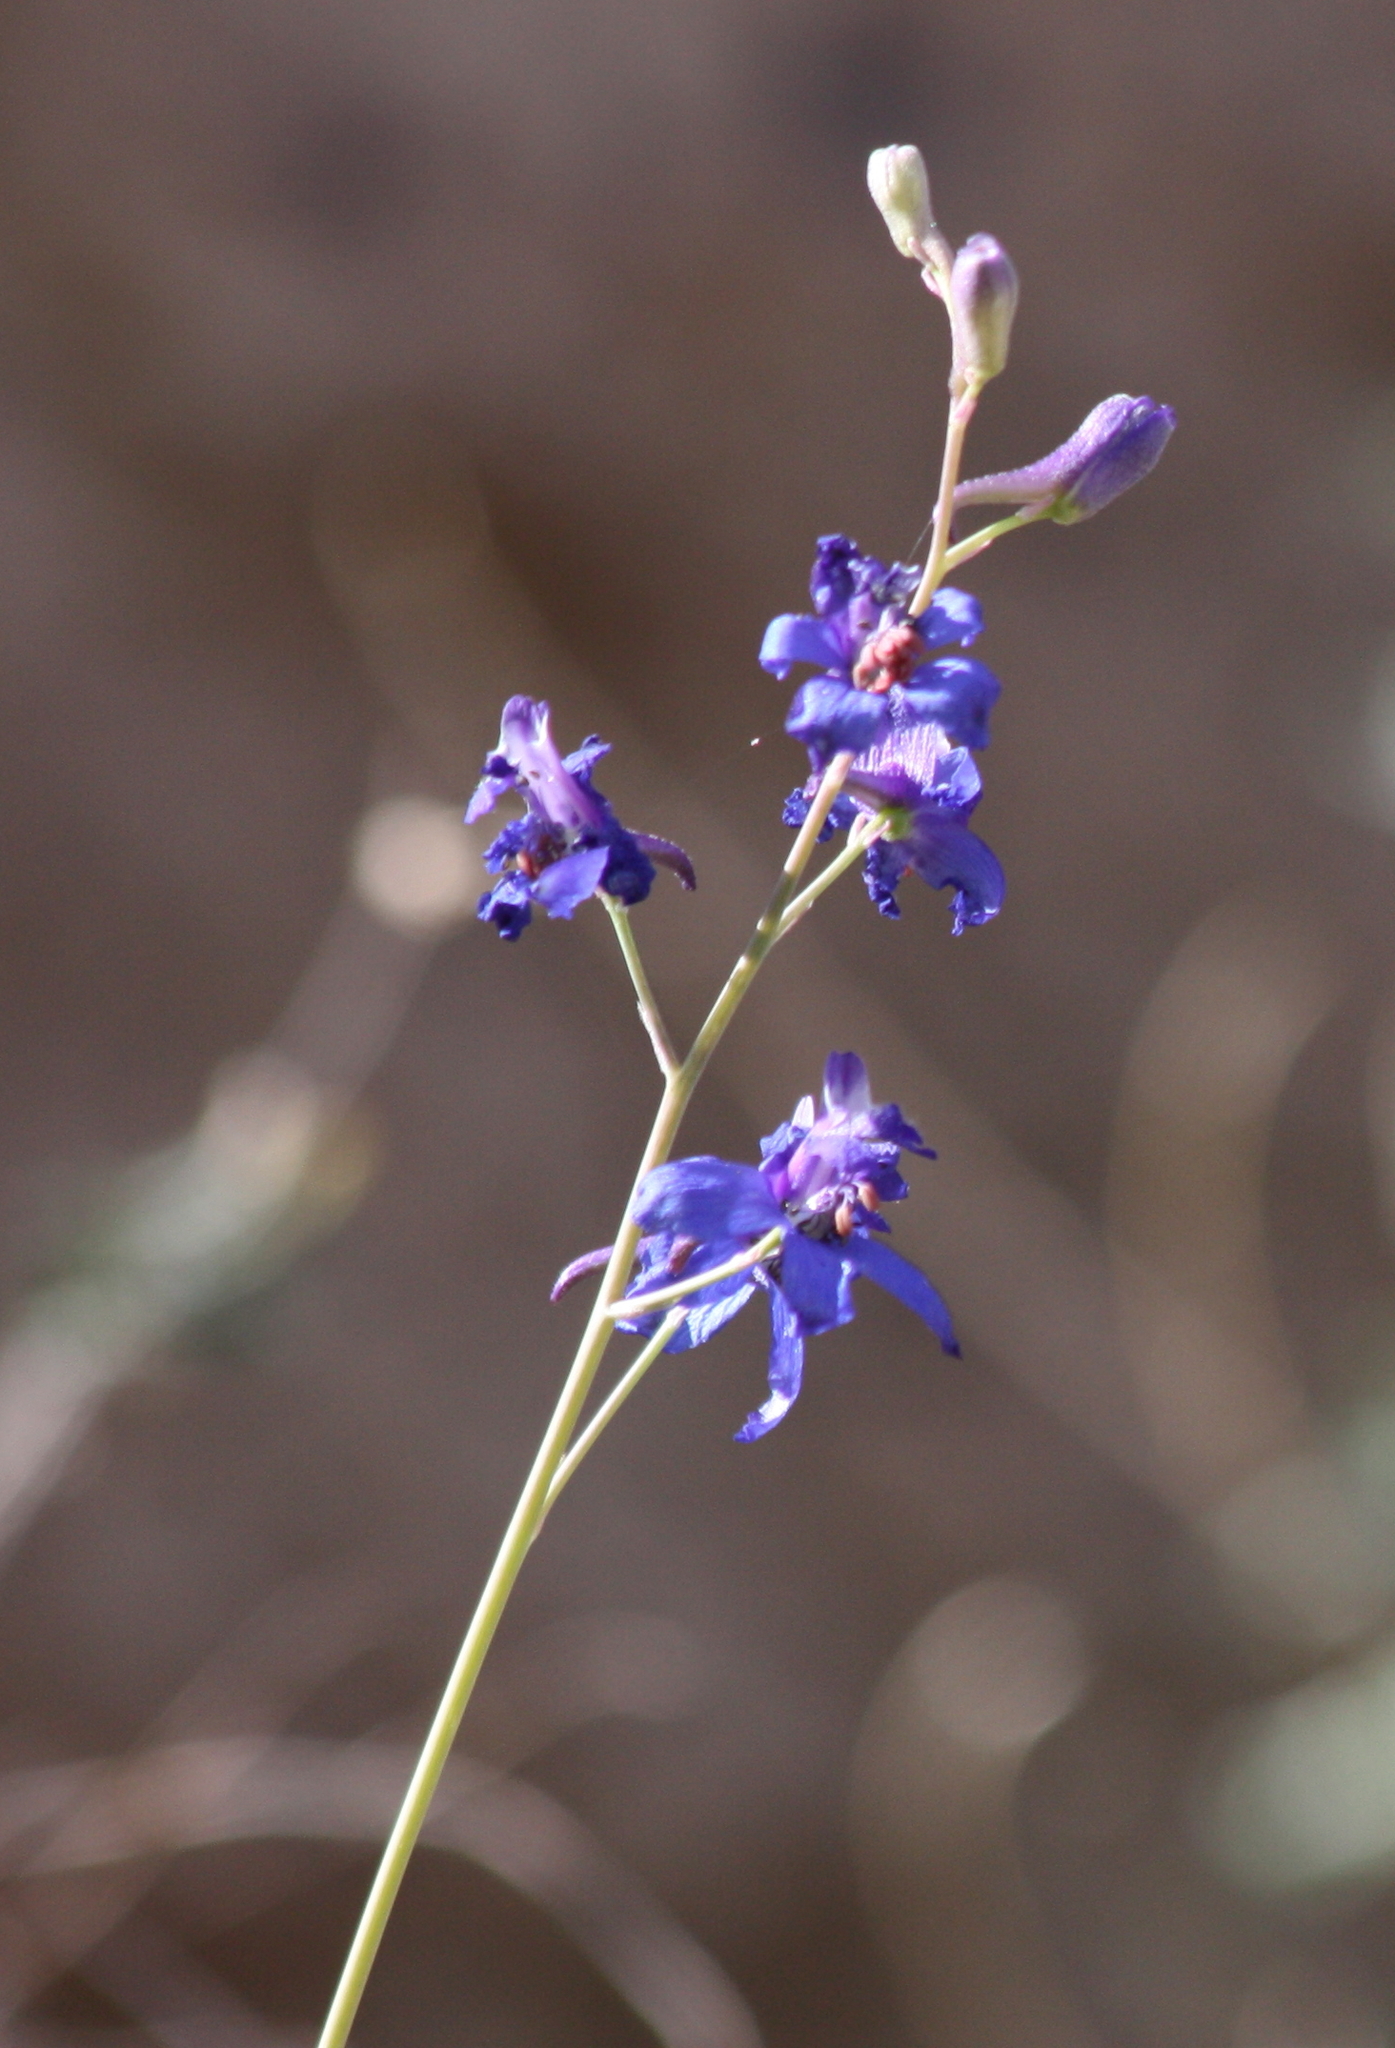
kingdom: Plantae
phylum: Tracheophyta
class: Magnoliopsida
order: Ranunculales
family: Ranunculaceae
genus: Delphinium
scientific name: Delphinium scaposum
